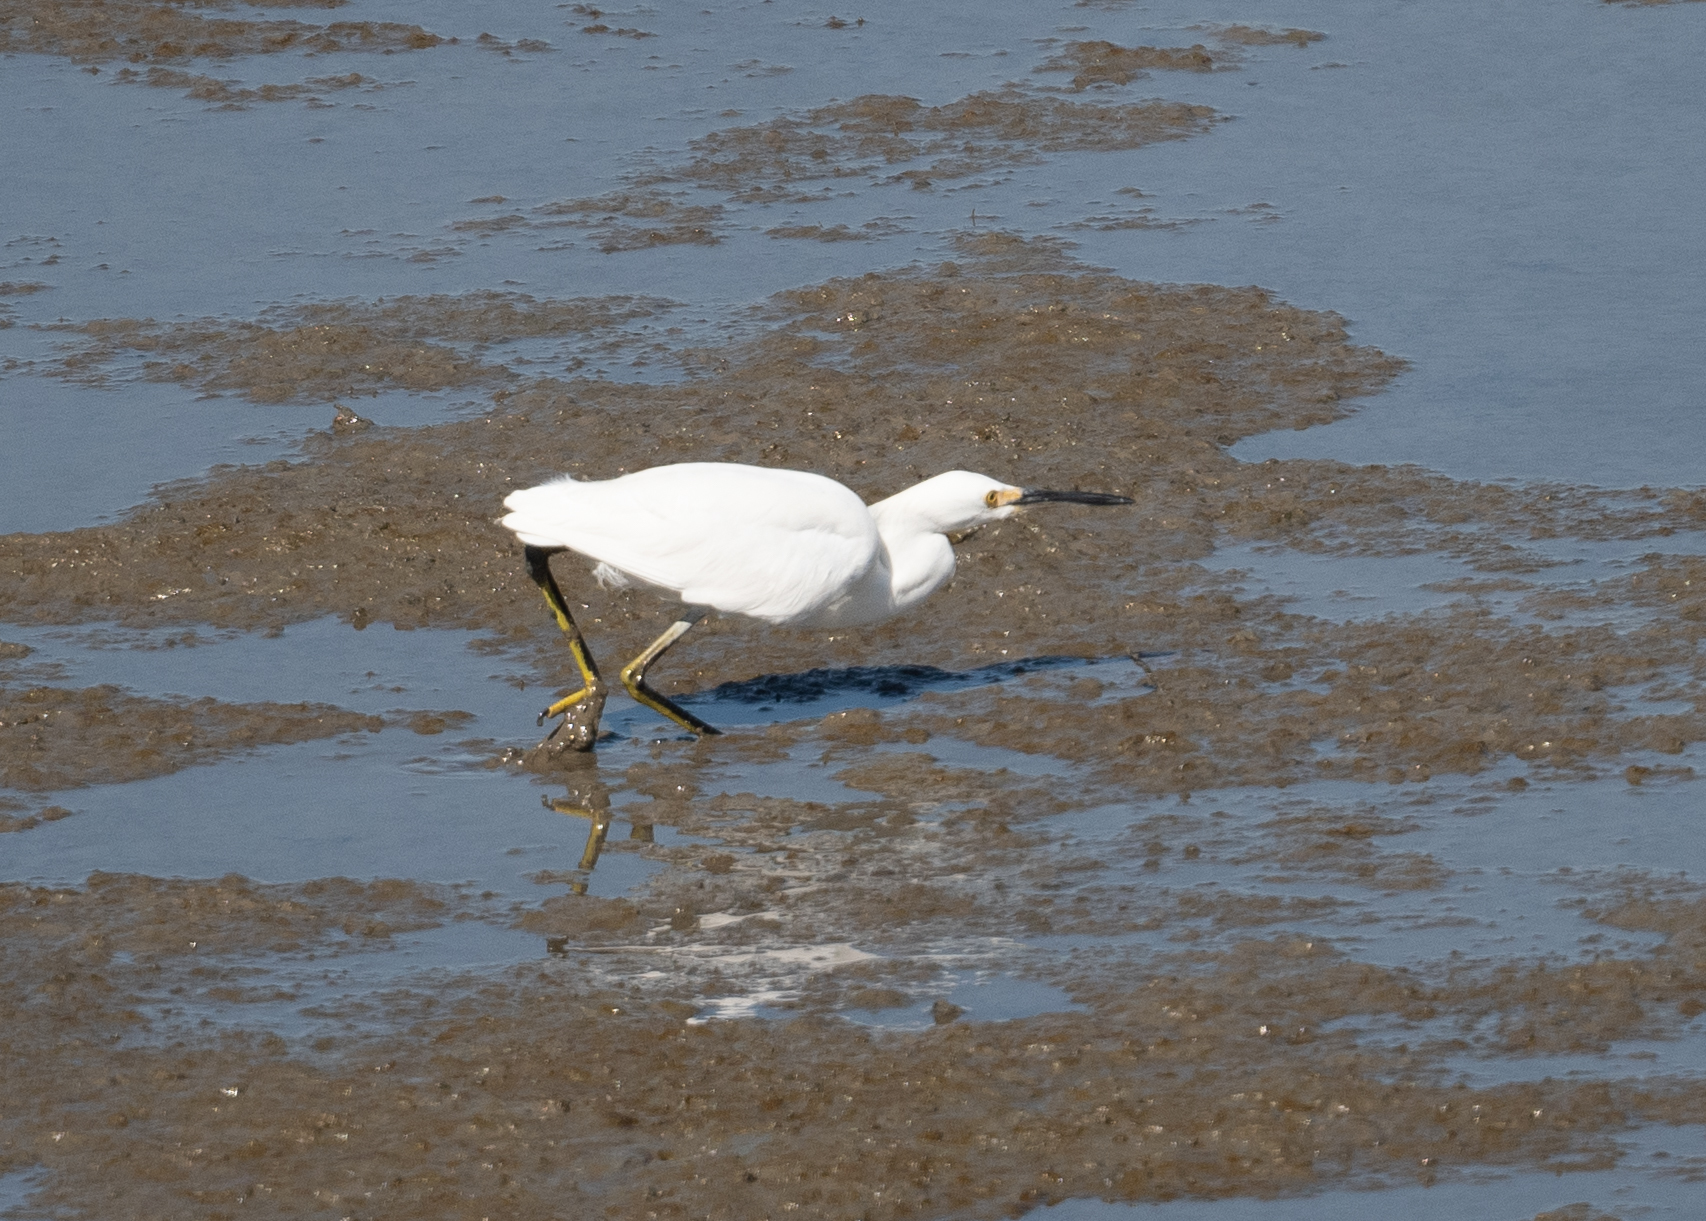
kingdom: Animalia
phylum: Chordata
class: Aves
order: Pelecaniformes
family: Ardeidae
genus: Egretta
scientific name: Egretta thula
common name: Snowy egret
